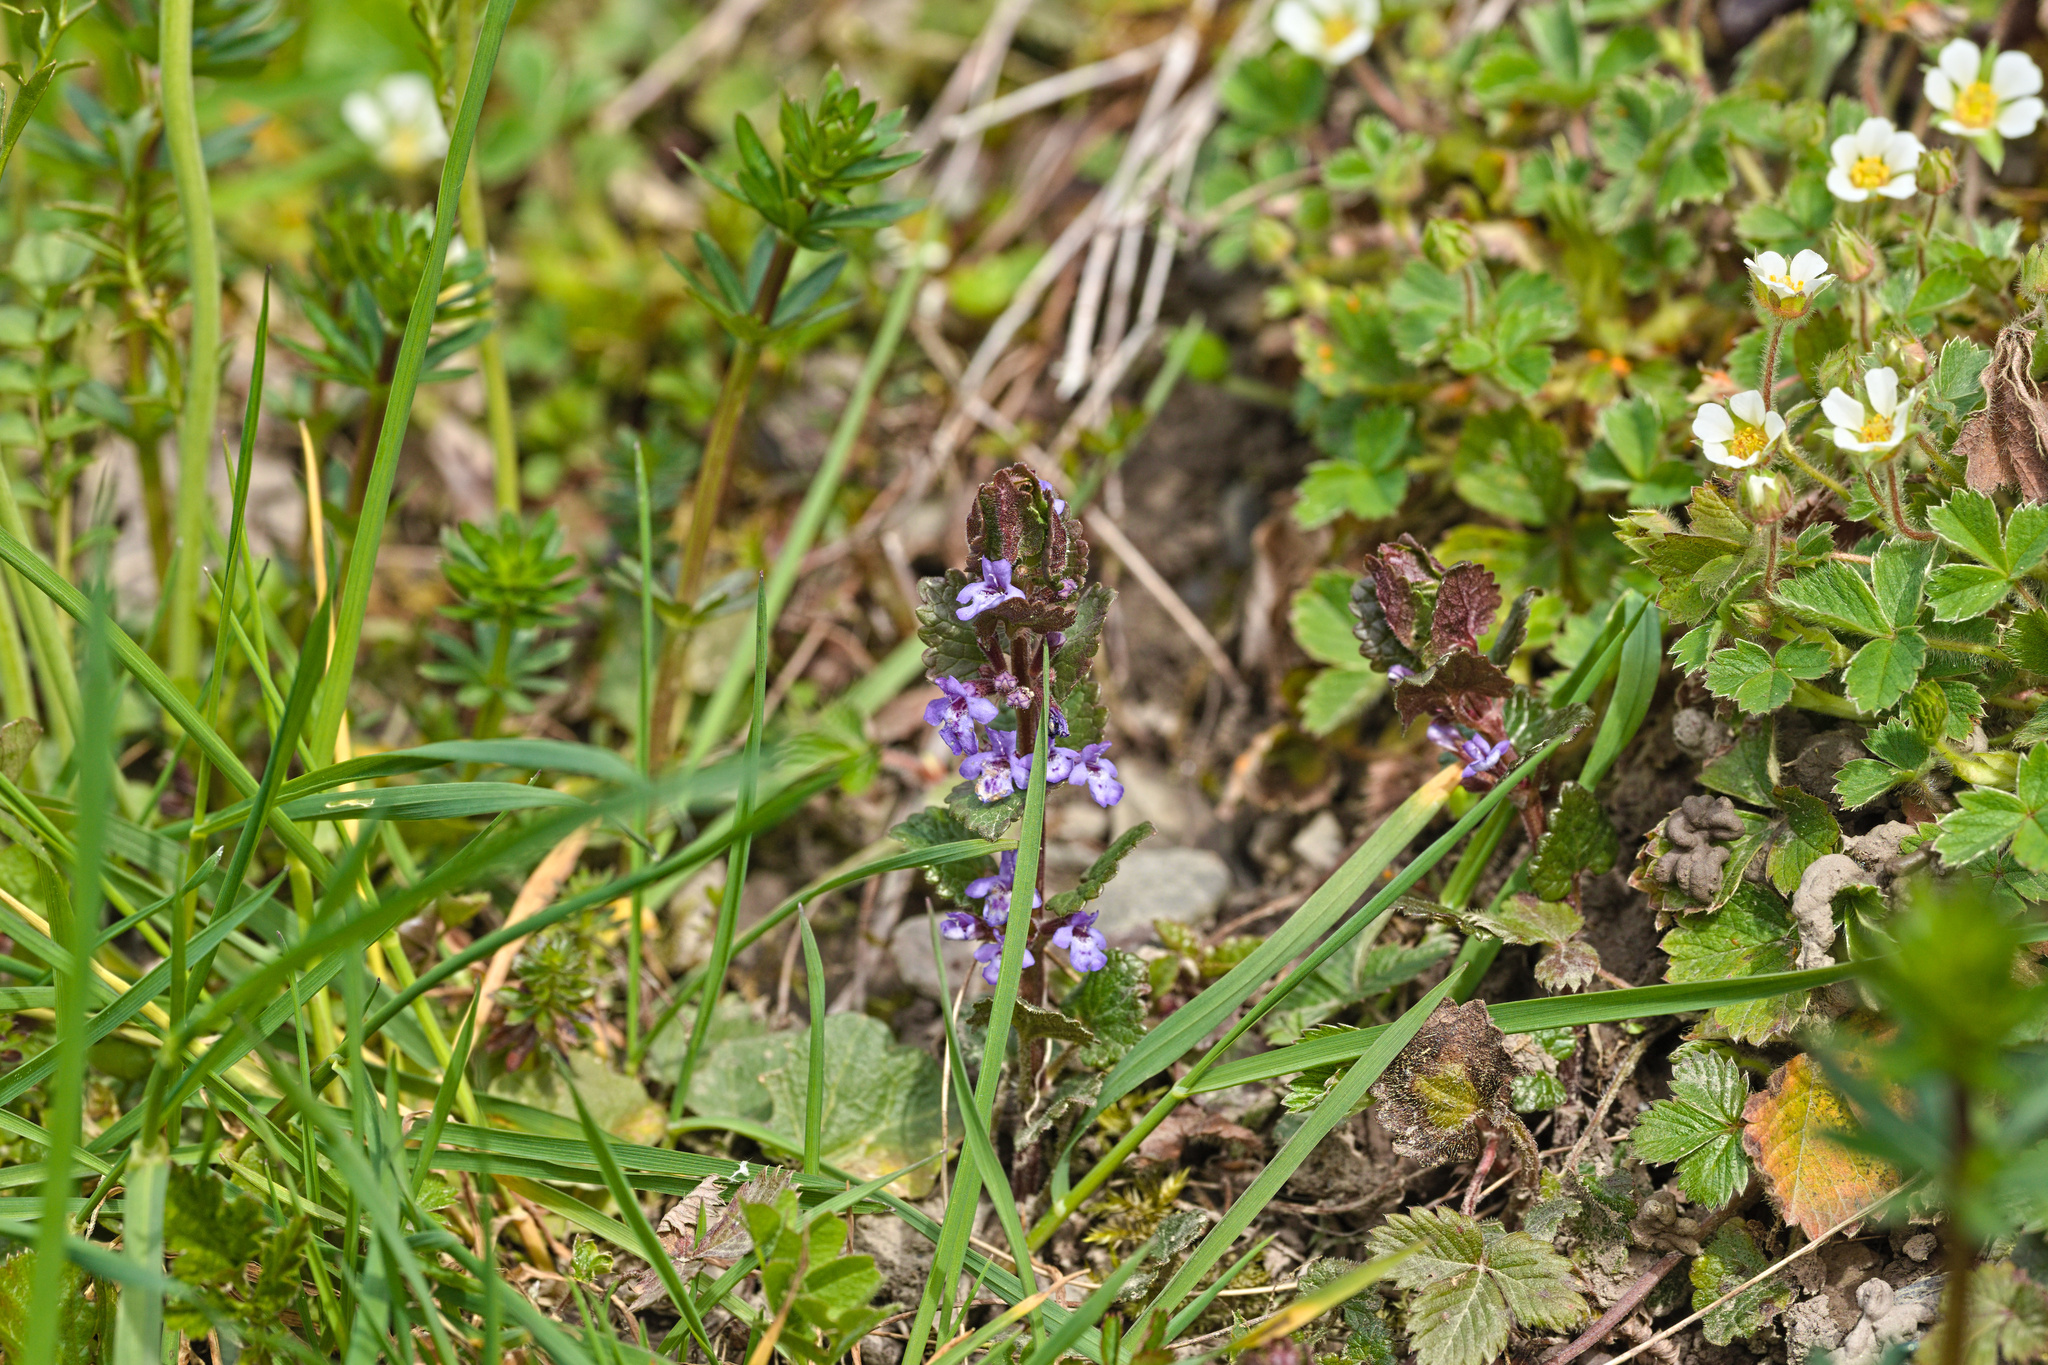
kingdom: Plantae
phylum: Tracheophyta
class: Magnoliopsida
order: Lamiales
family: Lamiaceae
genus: Glechoma
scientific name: Glechoma hederacea
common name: Ground ivy
